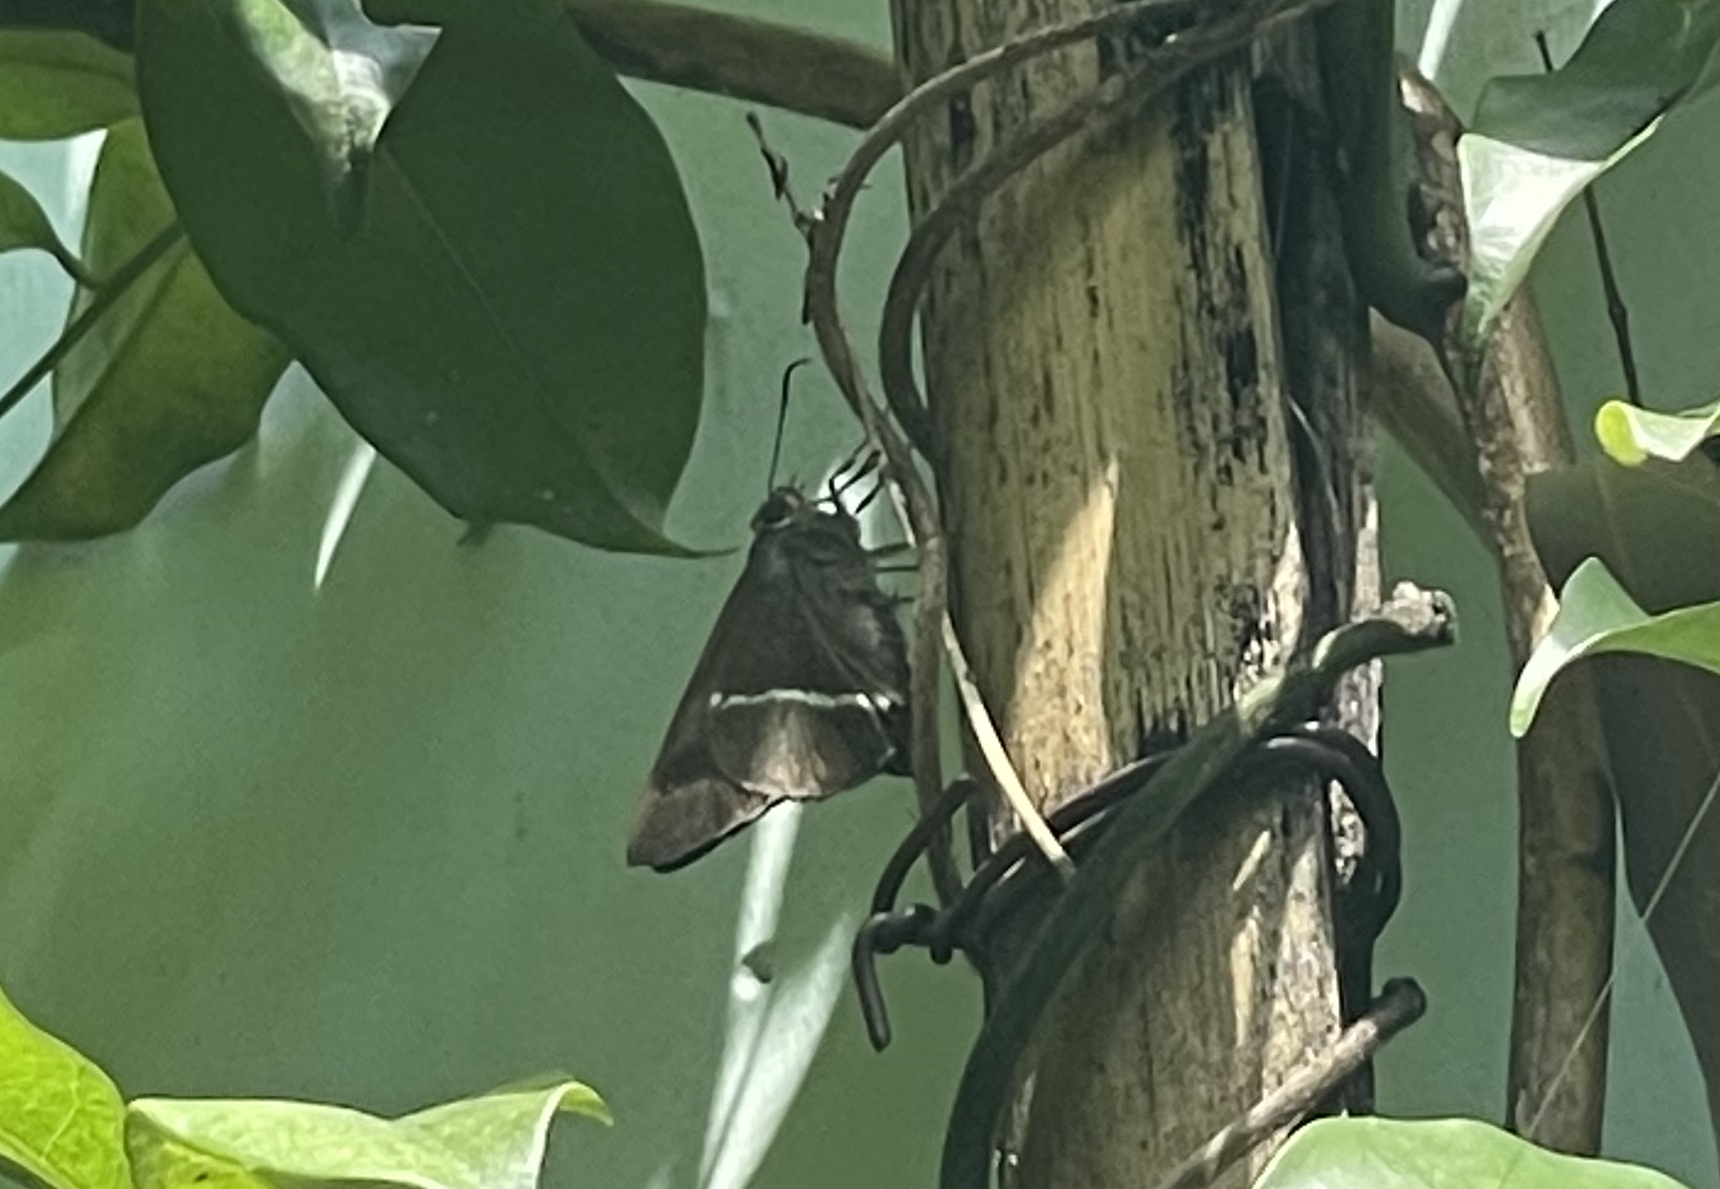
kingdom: Animalia
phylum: Arthropoda
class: Insecta
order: Lepidoptera
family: Hesperiidae
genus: Hasora
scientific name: Hasora khoda
